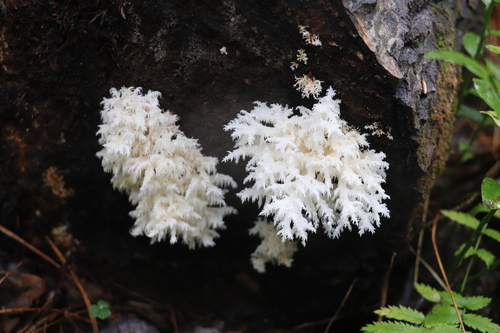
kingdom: Fungi
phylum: Basidiomycota
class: Agaricomycetes
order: Russulales
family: Hericiaceae
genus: Hericium
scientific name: Hericium coralloides
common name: Coral tooth
